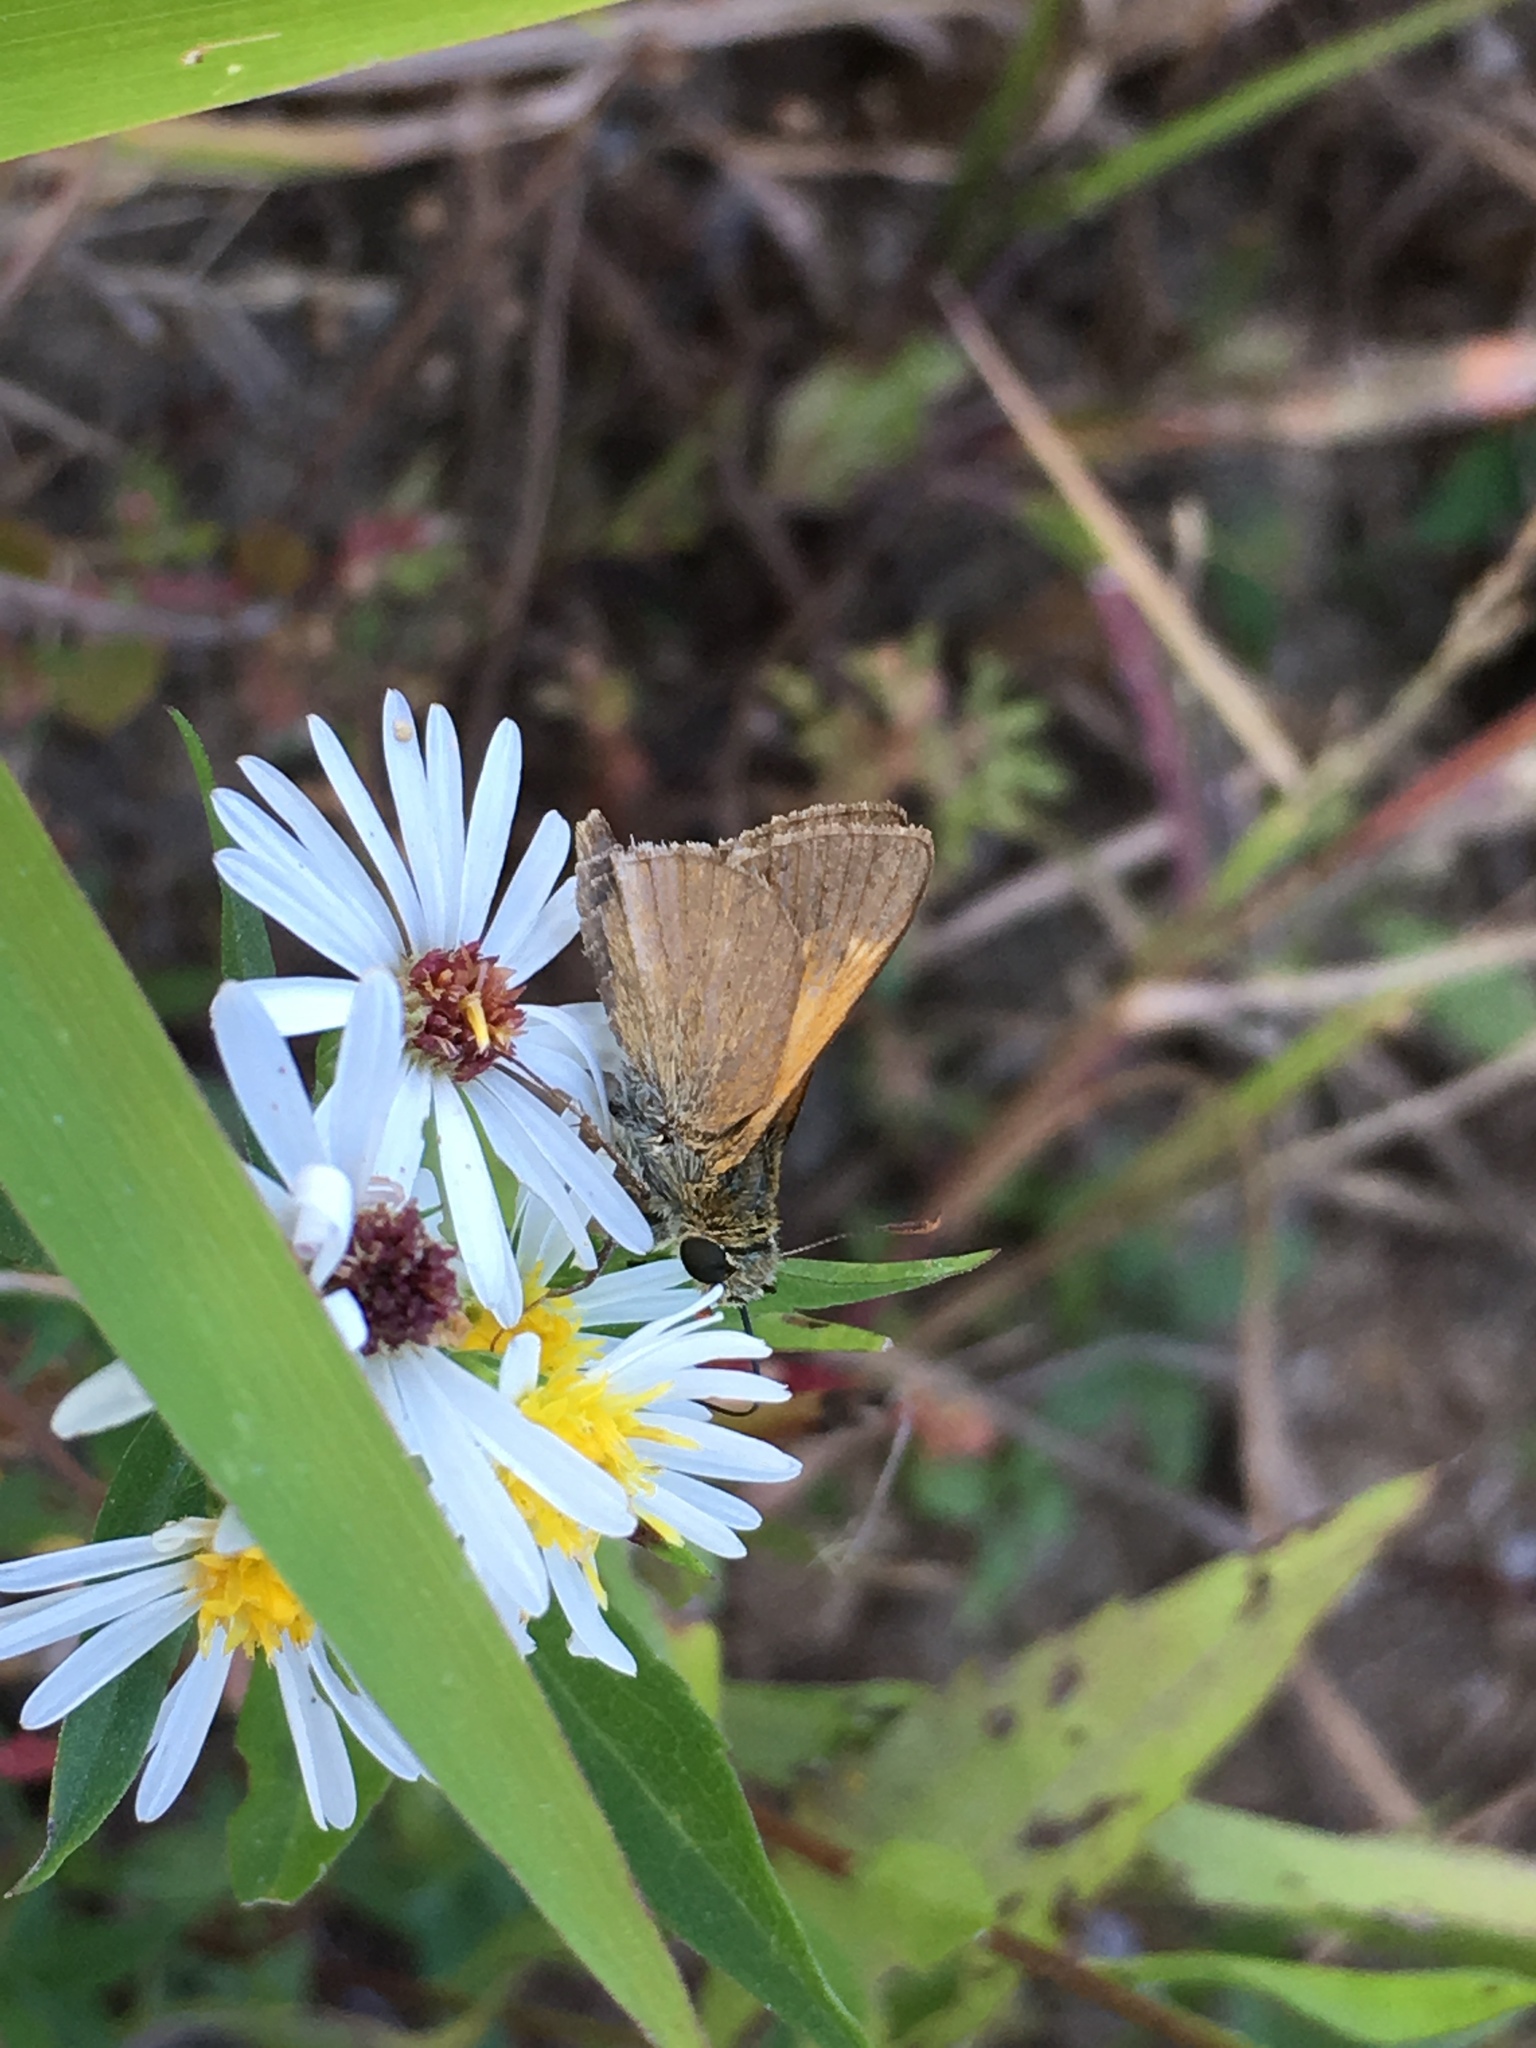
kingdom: Animalia
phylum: Arthropoda
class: Insecta
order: Lepidoptera
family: Hesperiidae
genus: Polites
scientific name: Polites themistocles
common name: Tawny-edged skipper
